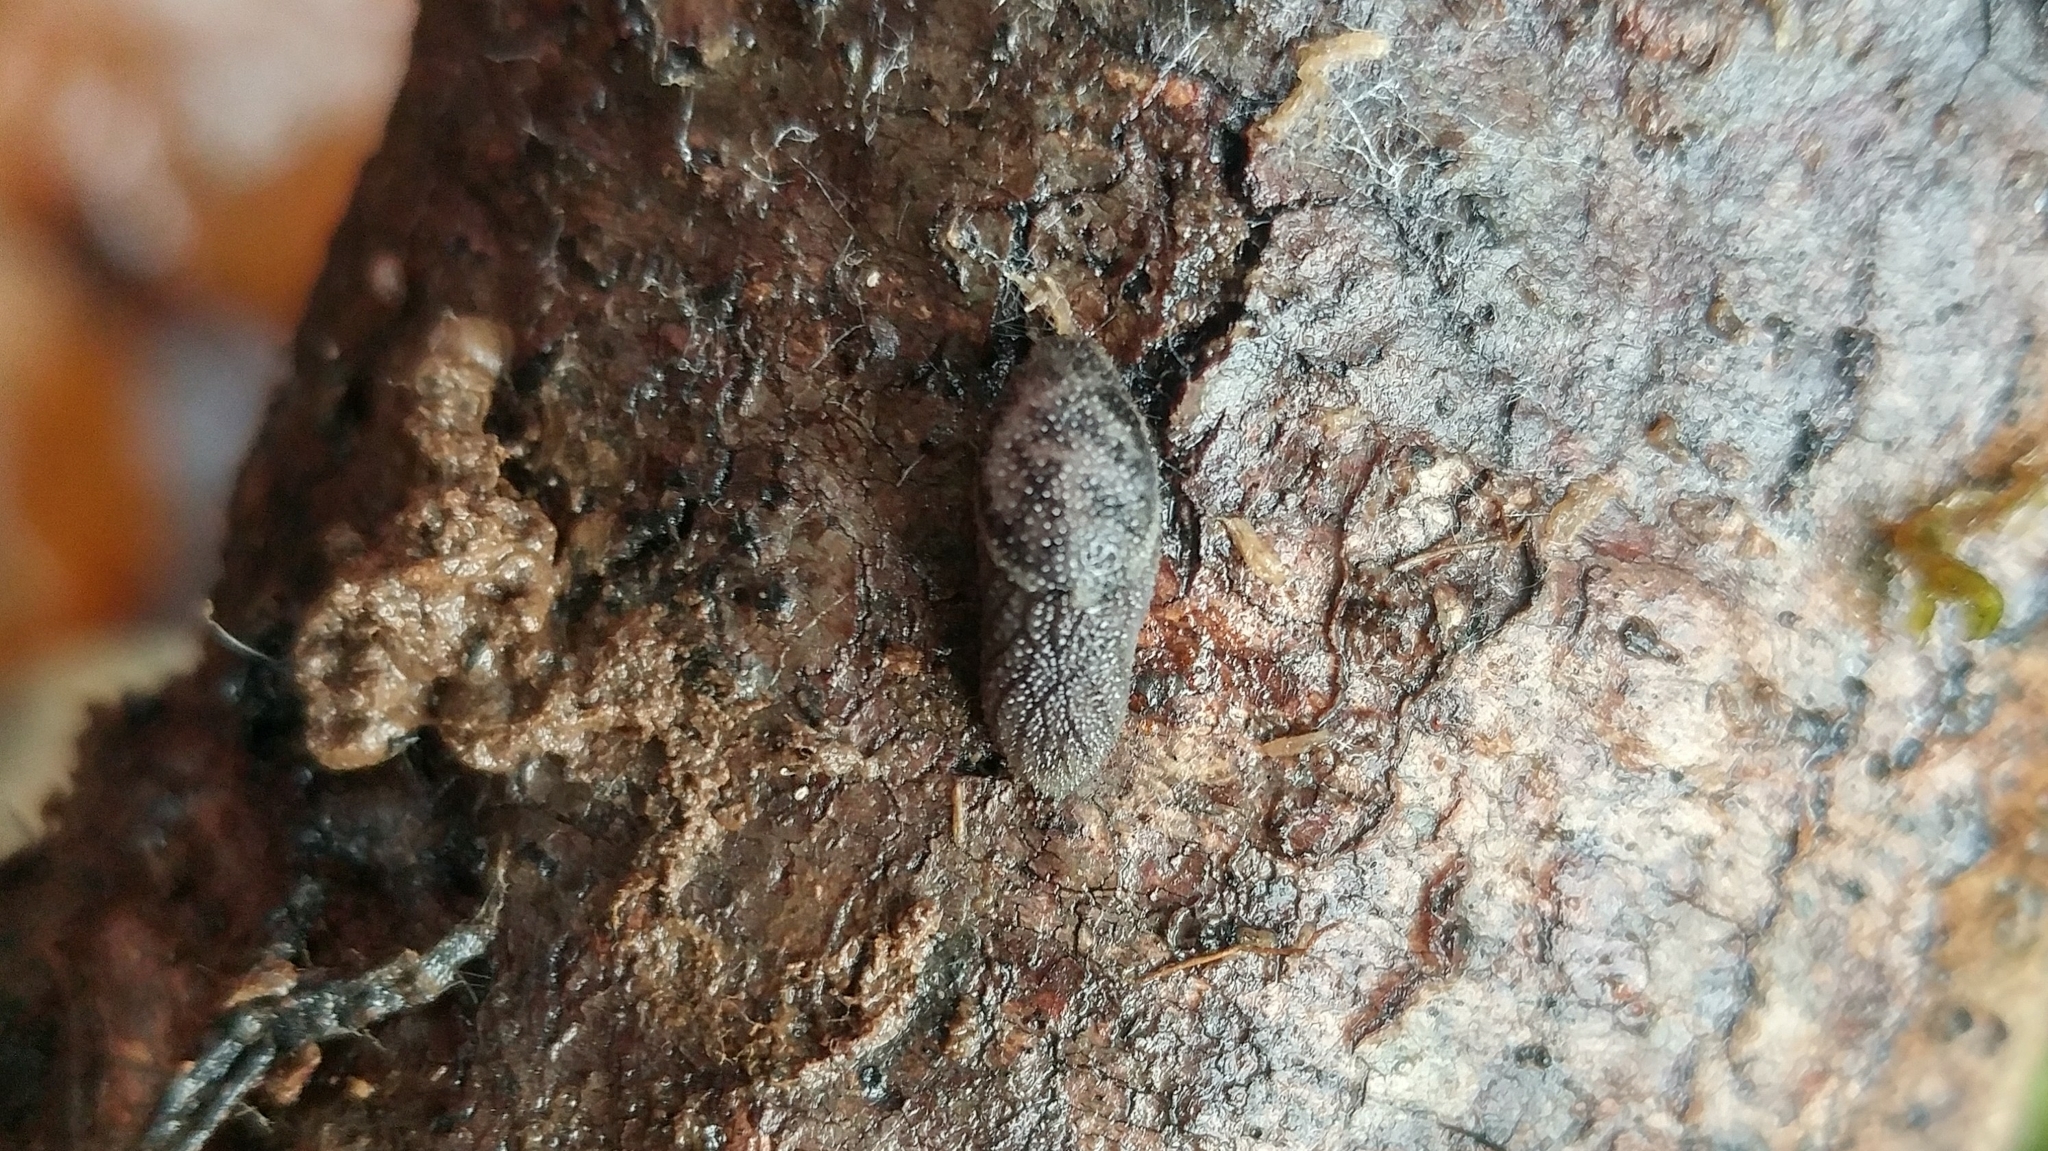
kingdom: Animalia
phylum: Mollusca
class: Gastropoda
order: Stylommatophora
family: Ariolimacidae
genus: Prophysaon
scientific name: Prophysaon dubium
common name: Papillose taildropper
